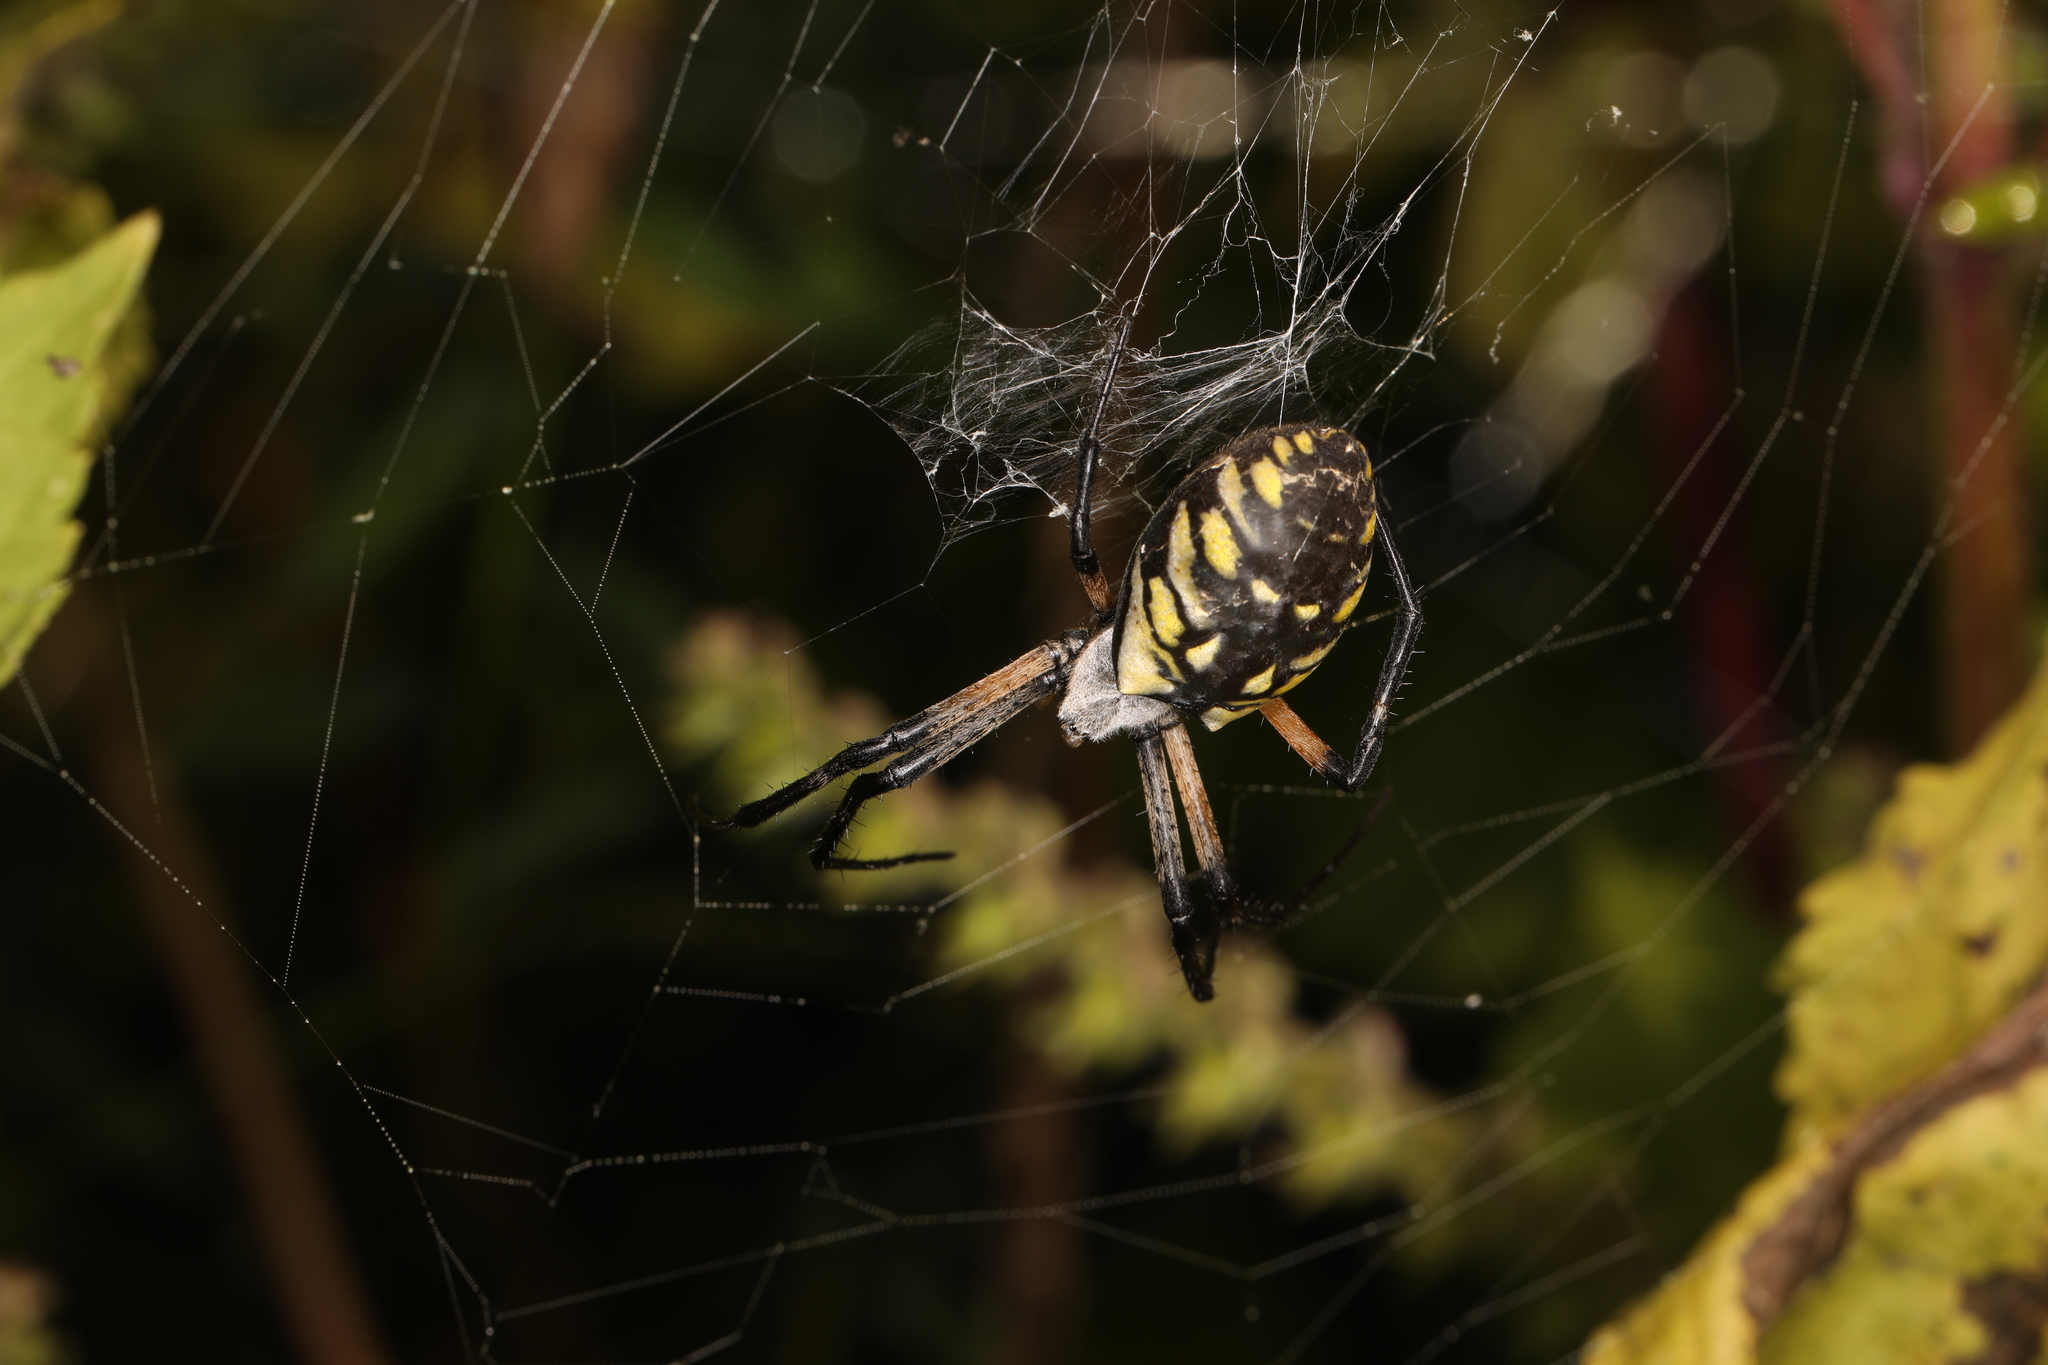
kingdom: Animalia
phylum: Arthropoda
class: Arachnida
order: Araneae
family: Araneidae
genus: Argiope
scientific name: Argiope aurantia
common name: Orb weavers
